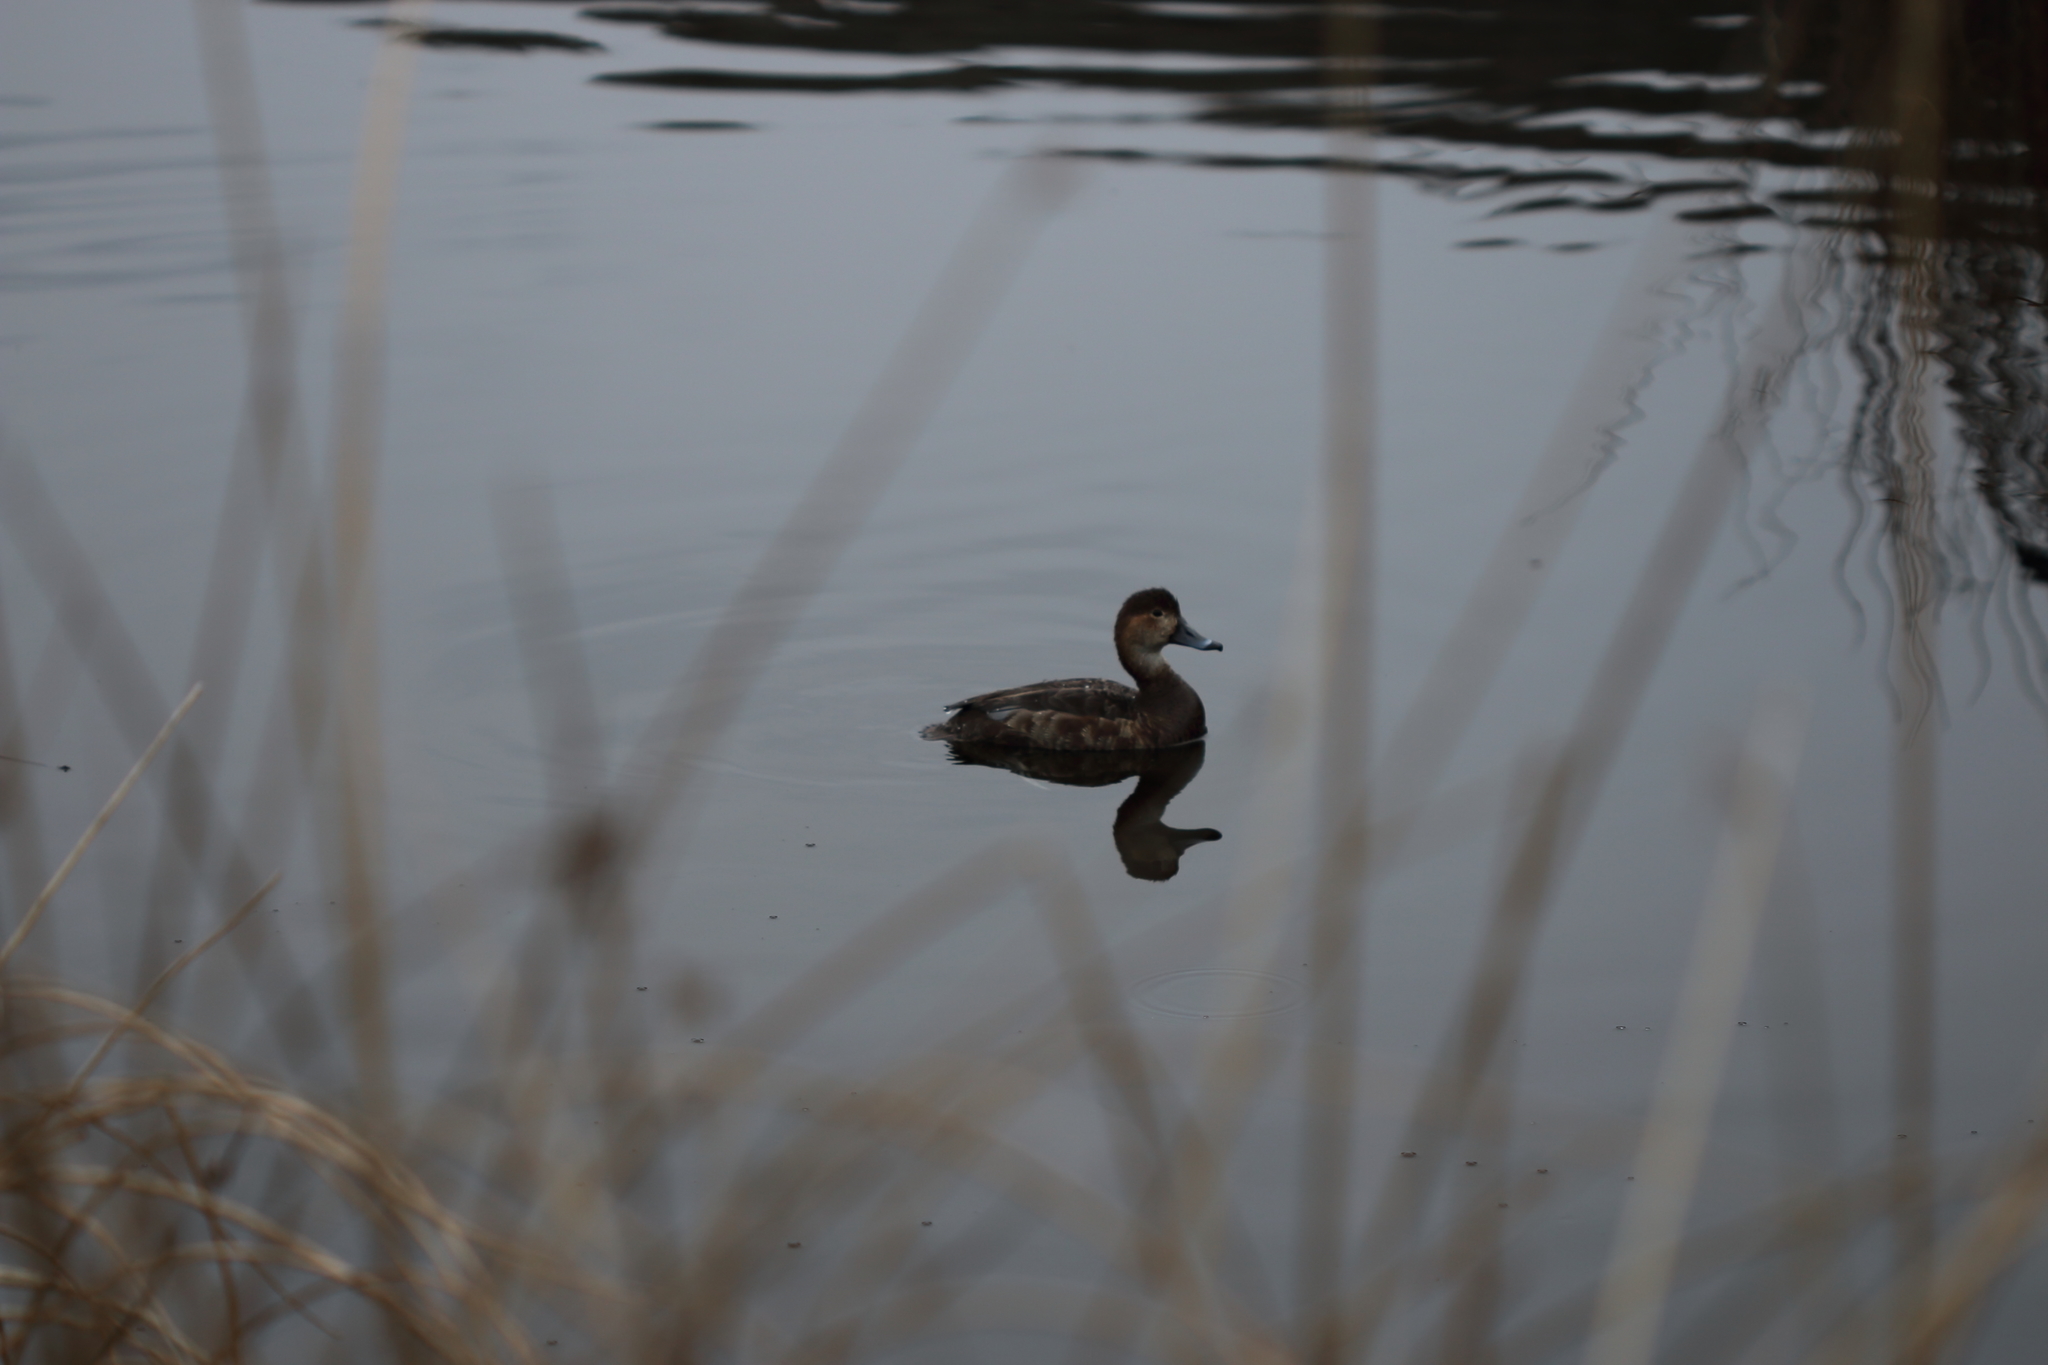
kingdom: Animalia
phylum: Chordata
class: Aves
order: Anseriformes
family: Anatidae
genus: Aythya
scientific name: Aythya americana
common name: Redhead
